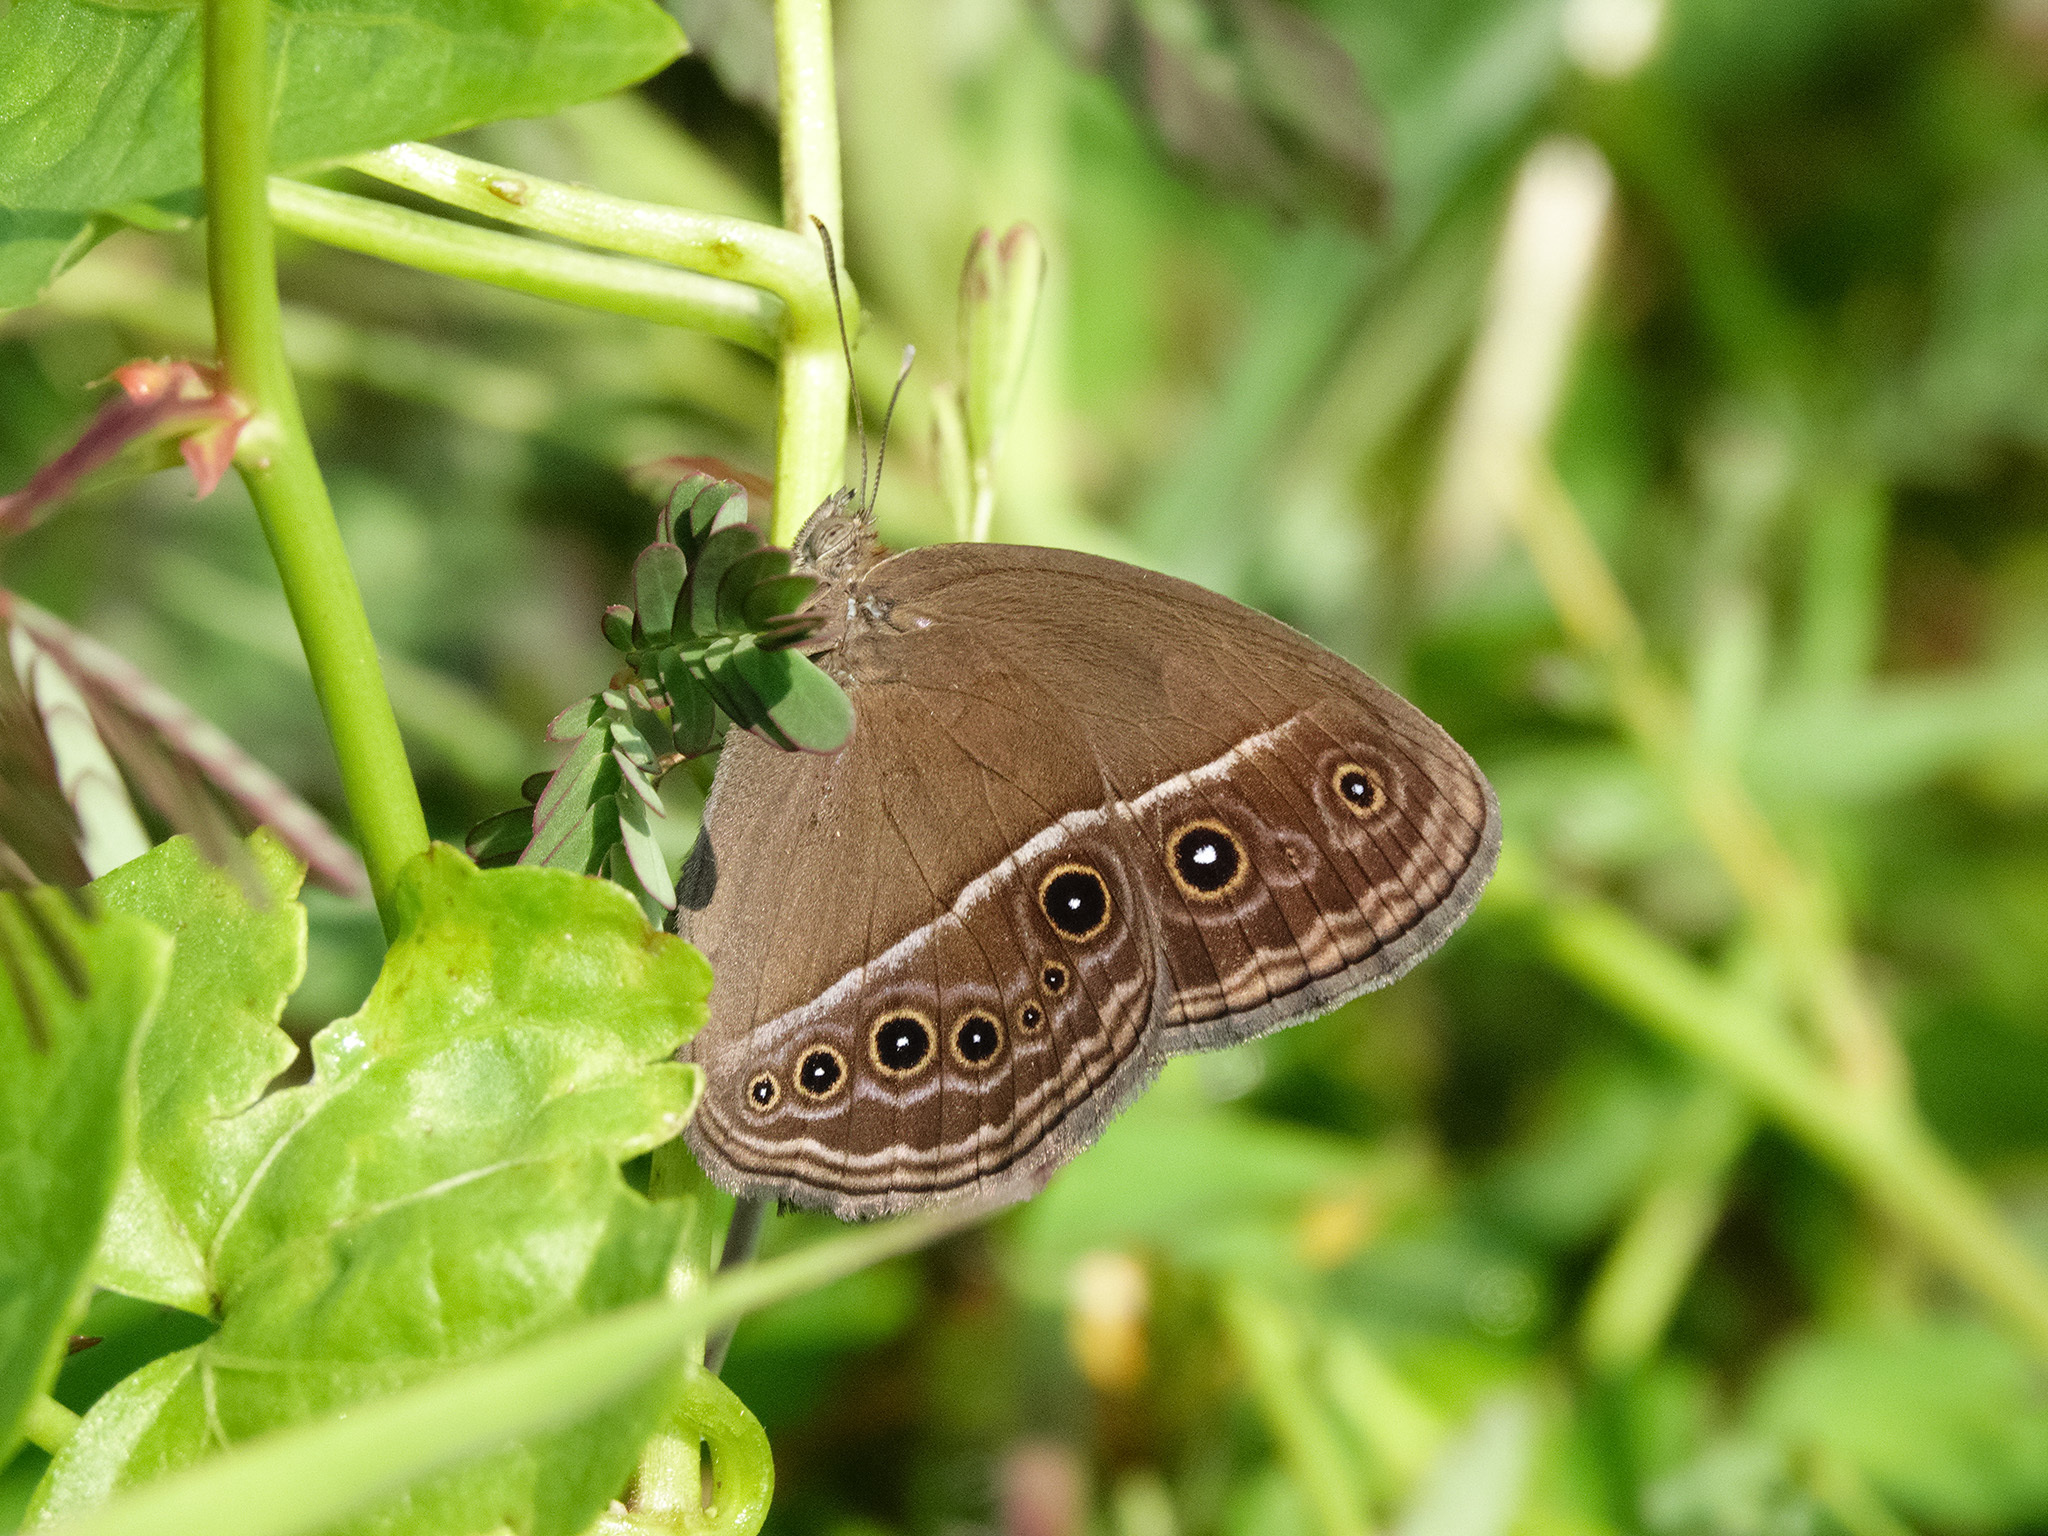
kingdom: Animalia
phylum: Arthropoda
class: Insecta
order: Lepidoptera
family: Nymphalidae
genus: Mycalesis
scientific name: Mycalesis perseus
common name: Dingy bushbrown
